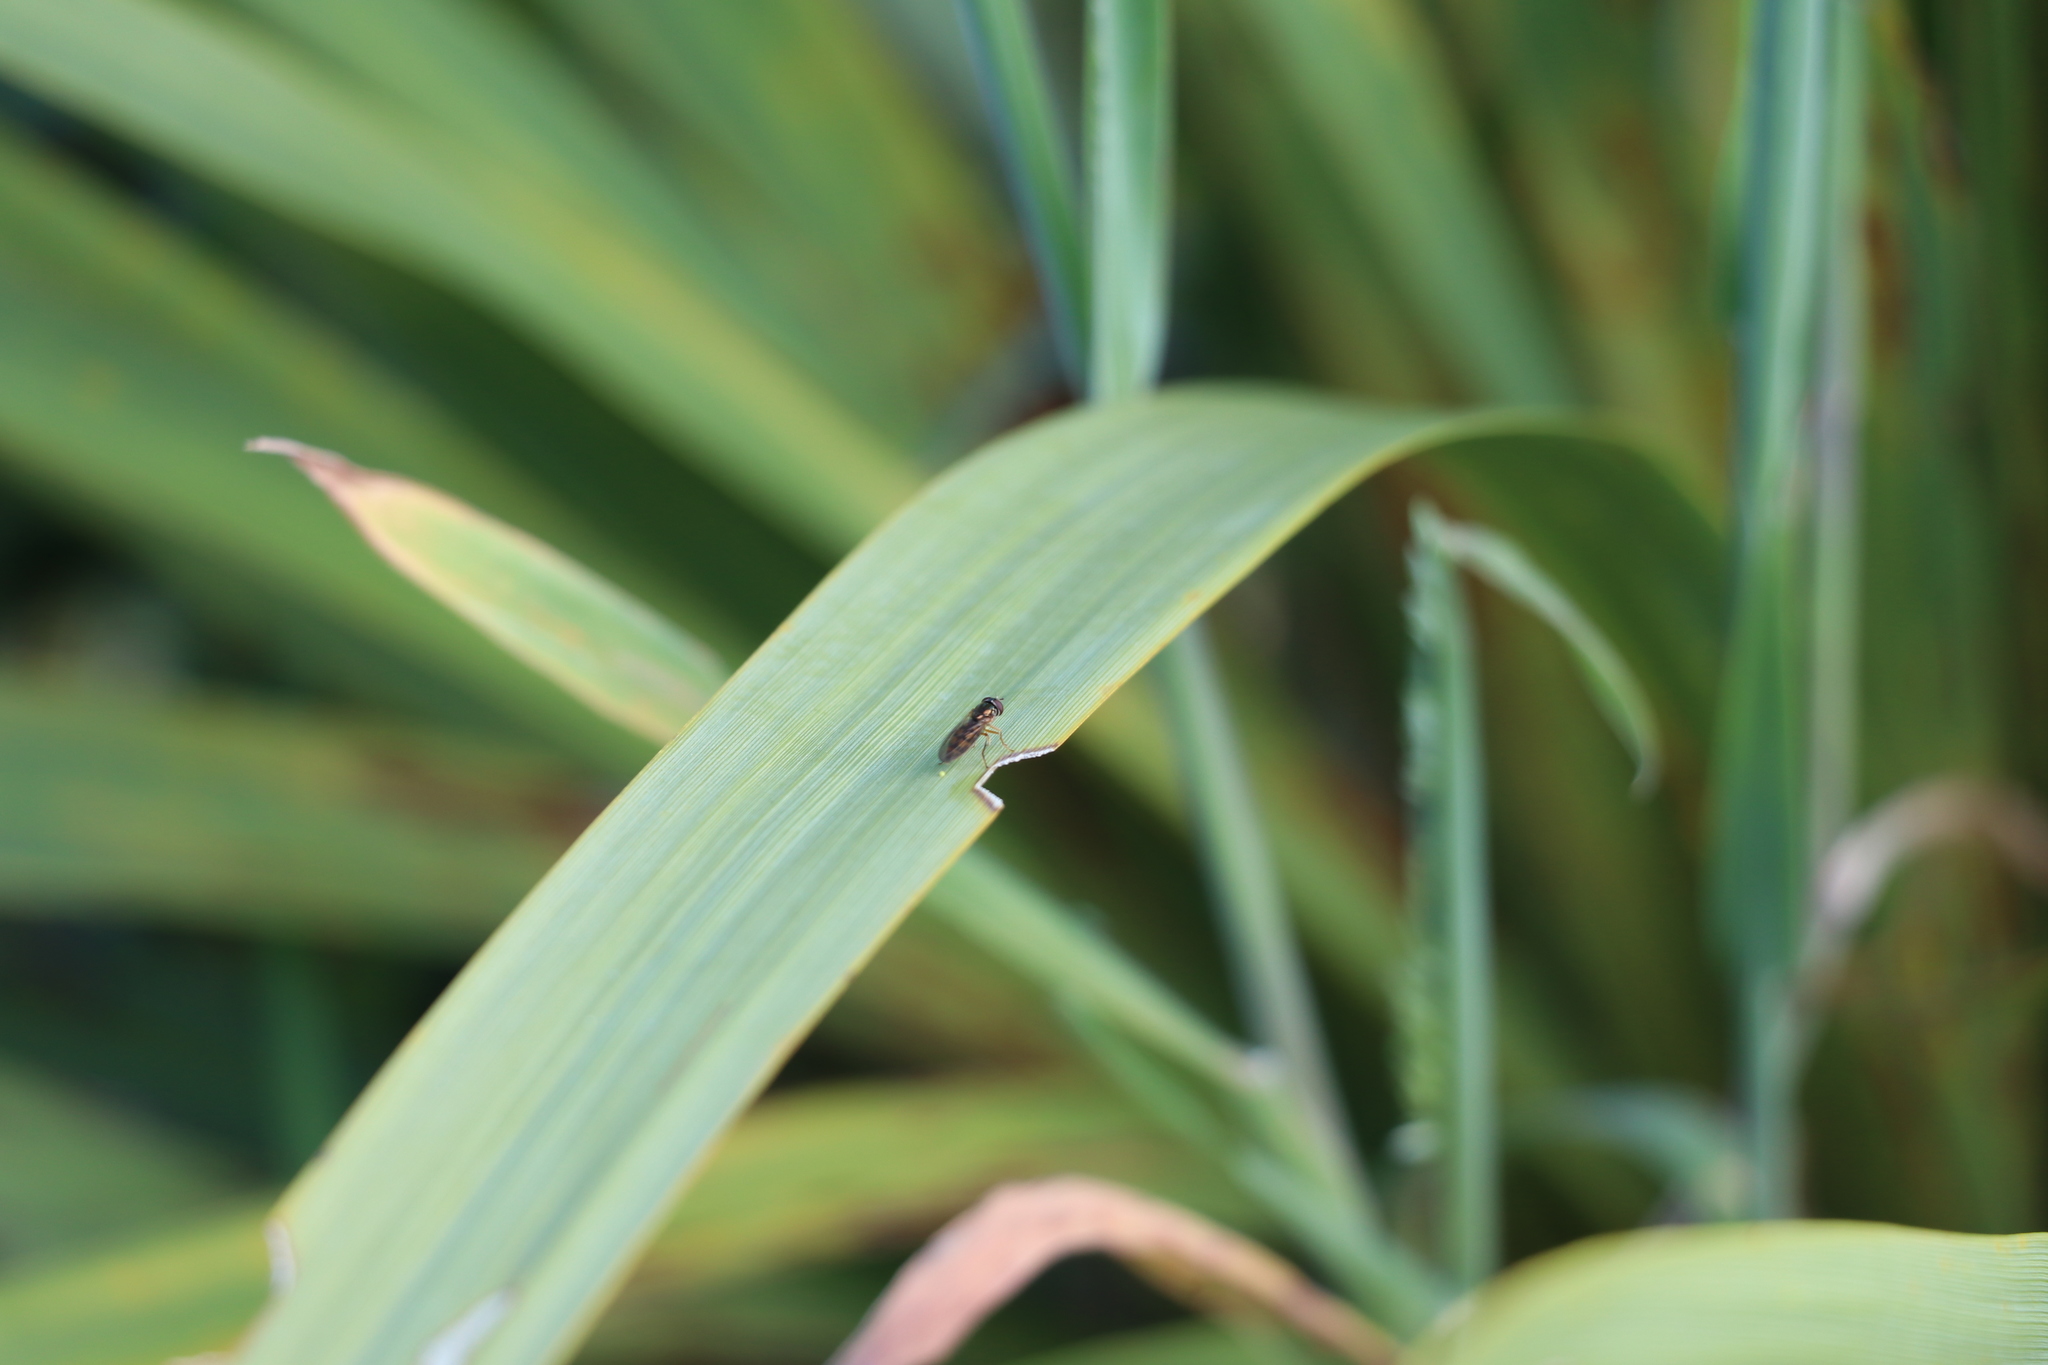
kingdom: Animalia
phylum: Arthropoda
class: Insecta
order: Diptera
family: Syrphidae
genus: Melanostoma
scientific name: Melanostoma fasciatum
